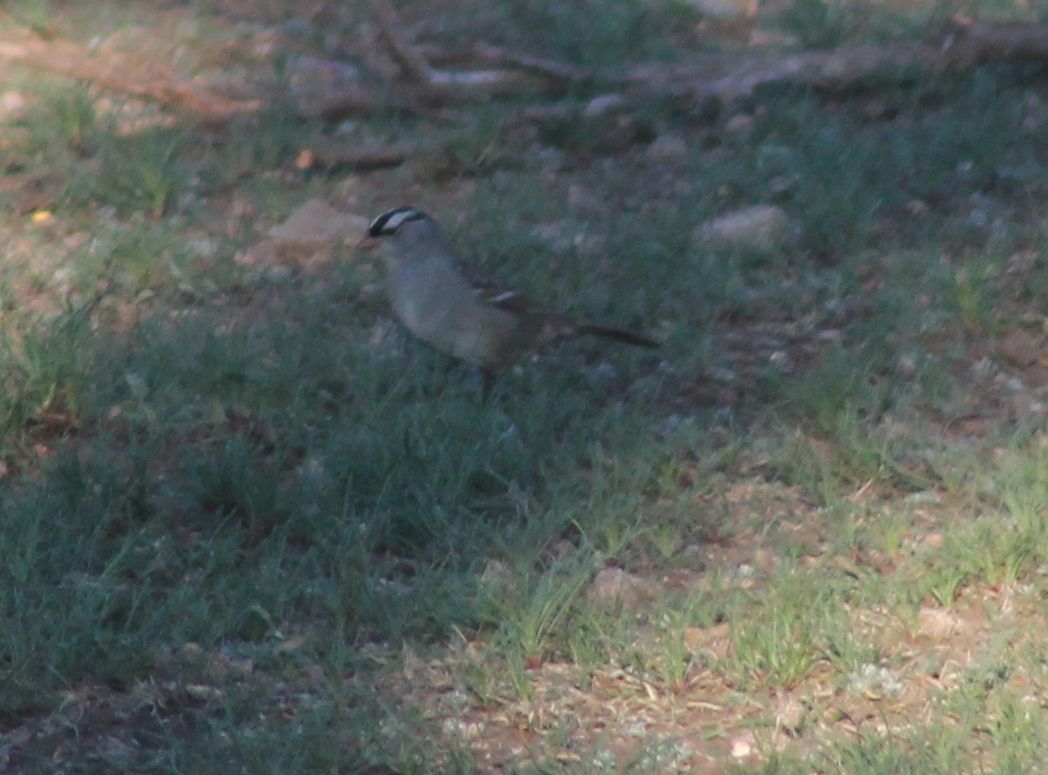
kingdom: Animalia
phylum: Chordata
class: Aves
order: Passeriformes
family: Passerellidae
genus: Zonotrichia
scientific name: Zonotrichia leucophrys
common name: White-crowned sparrow
